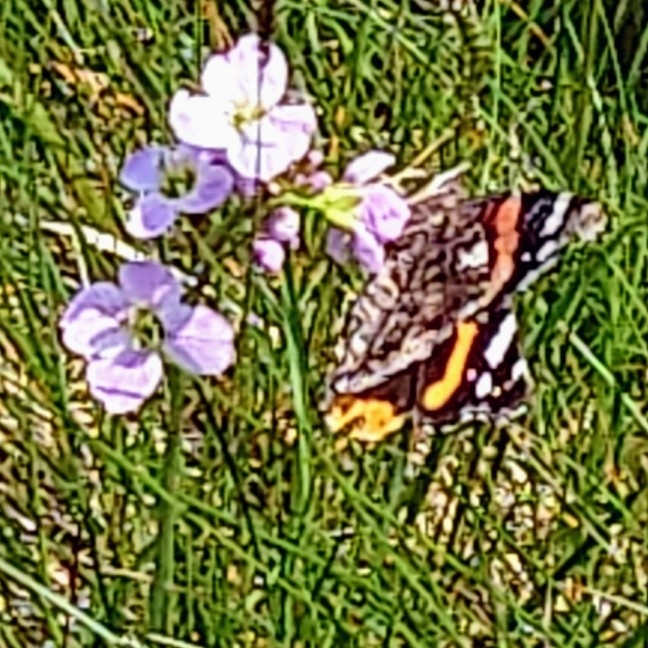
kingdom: Animalia
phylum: Arthropoda
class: Insecta
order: Lepidoptera
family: Nymphalidae
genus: Vanessa
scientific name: Vanessa atalanta
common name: Red admiral
